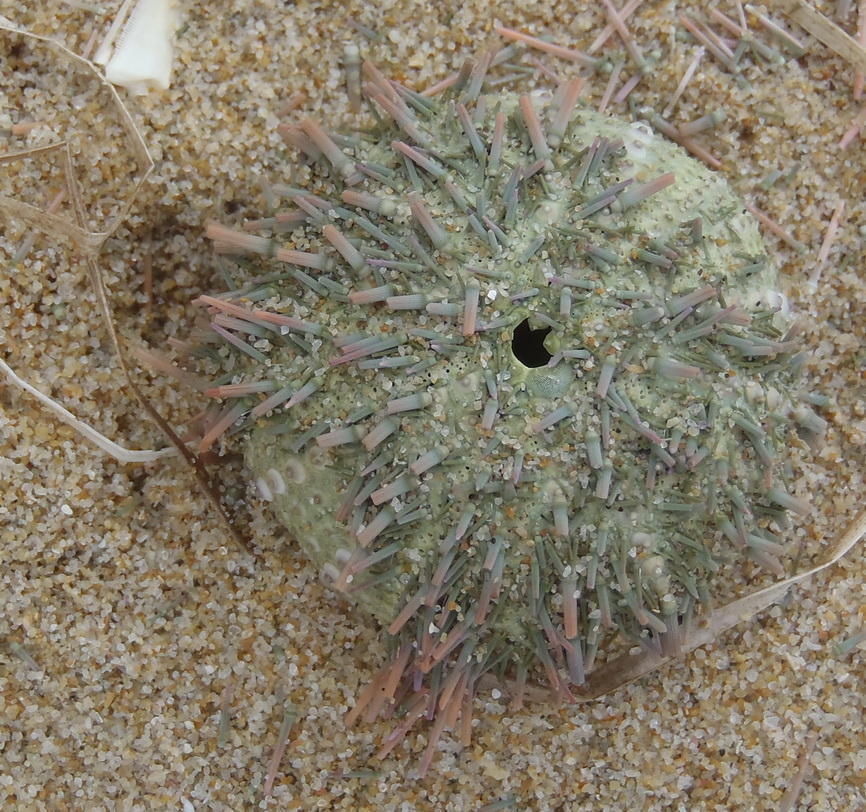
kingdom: Animalia
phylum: Echinodermata
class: Echinoidea
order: Camarodonta
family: Parechinidae
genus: Parechinus
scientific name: Parechinus angulosus
